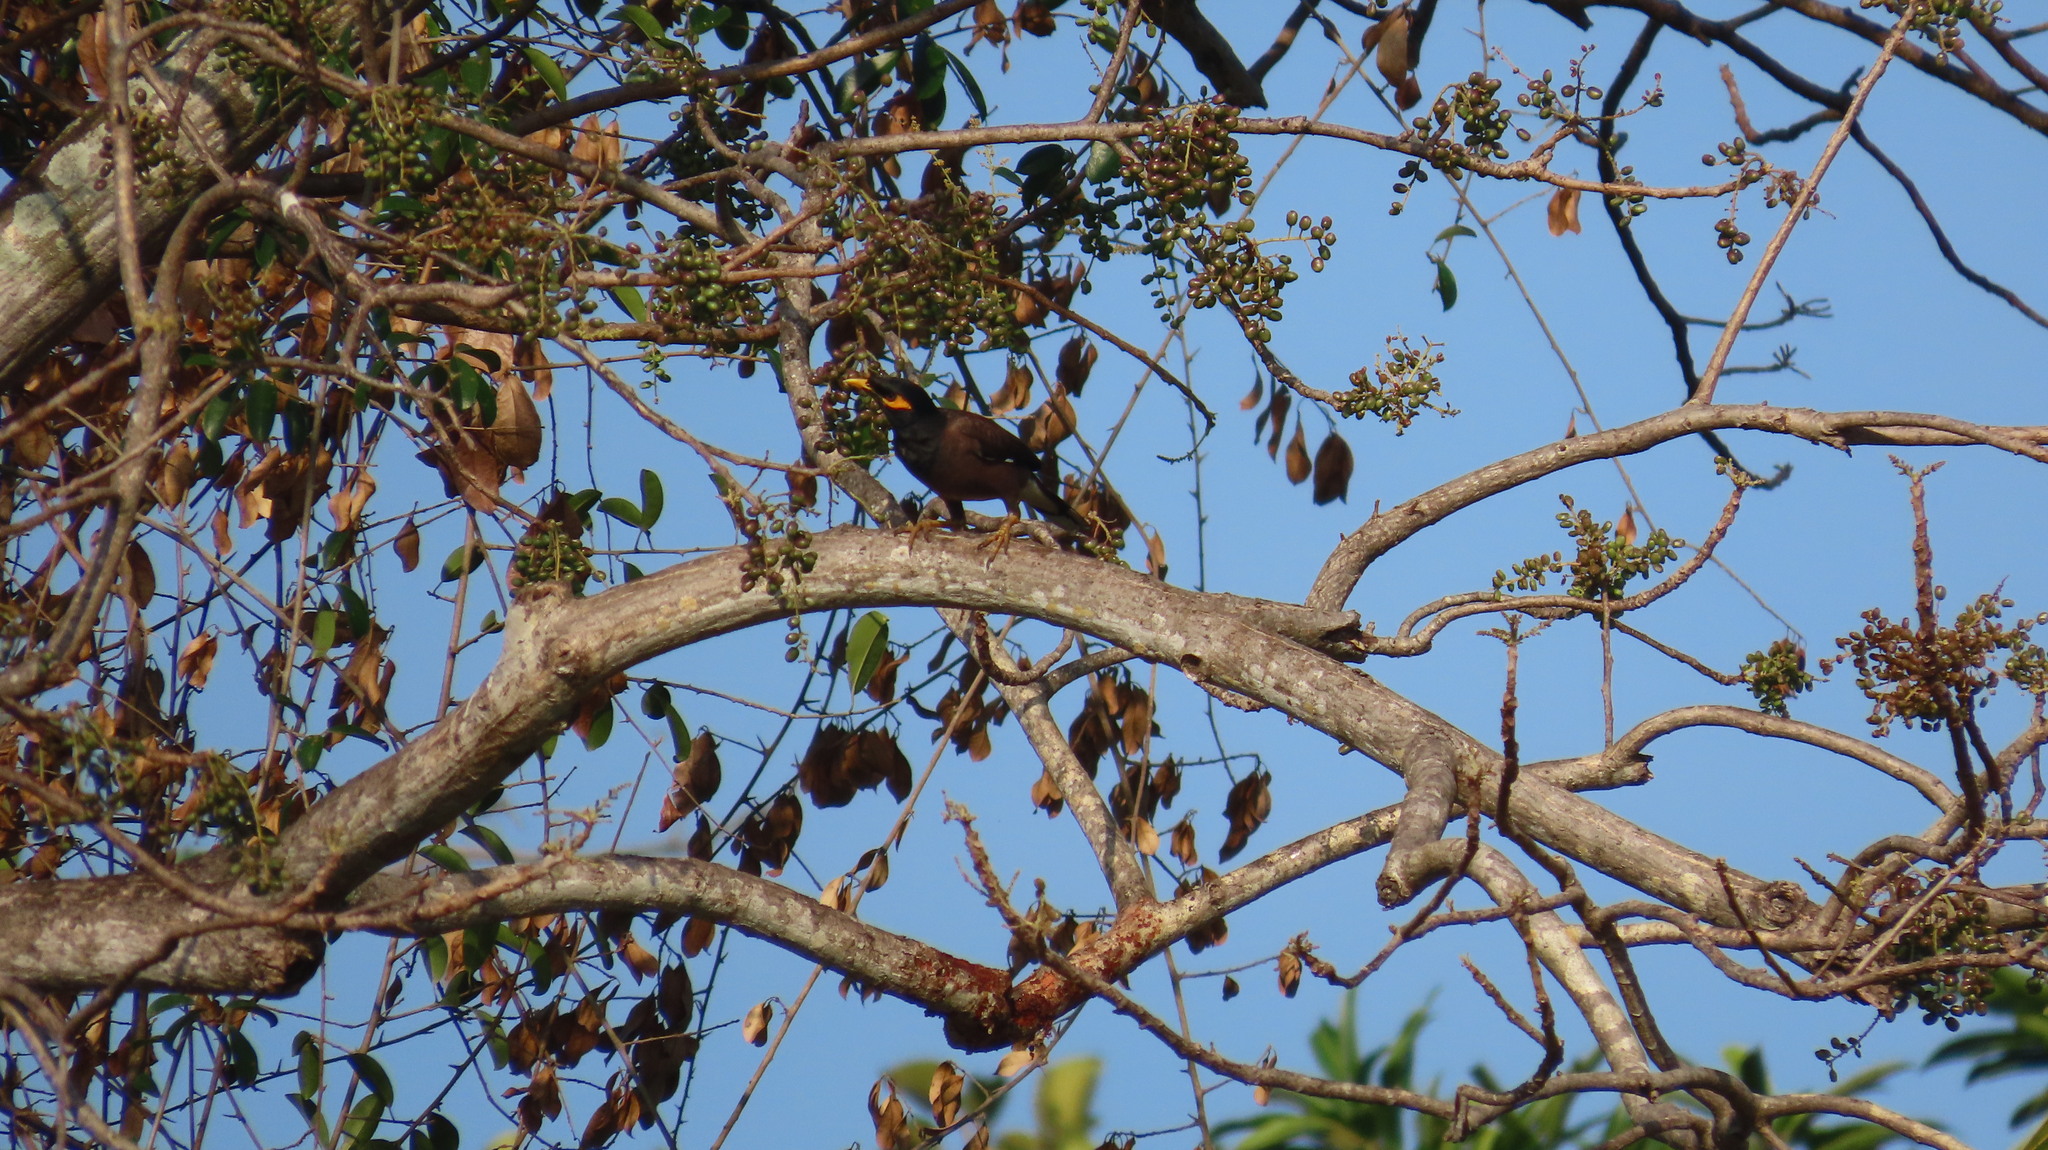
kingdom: Animalia
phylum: Chordata
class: Aves
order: Passeriformes
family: Sturnidae
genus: Acridotheres
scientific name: Acridotheres tristis
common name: Common myna
